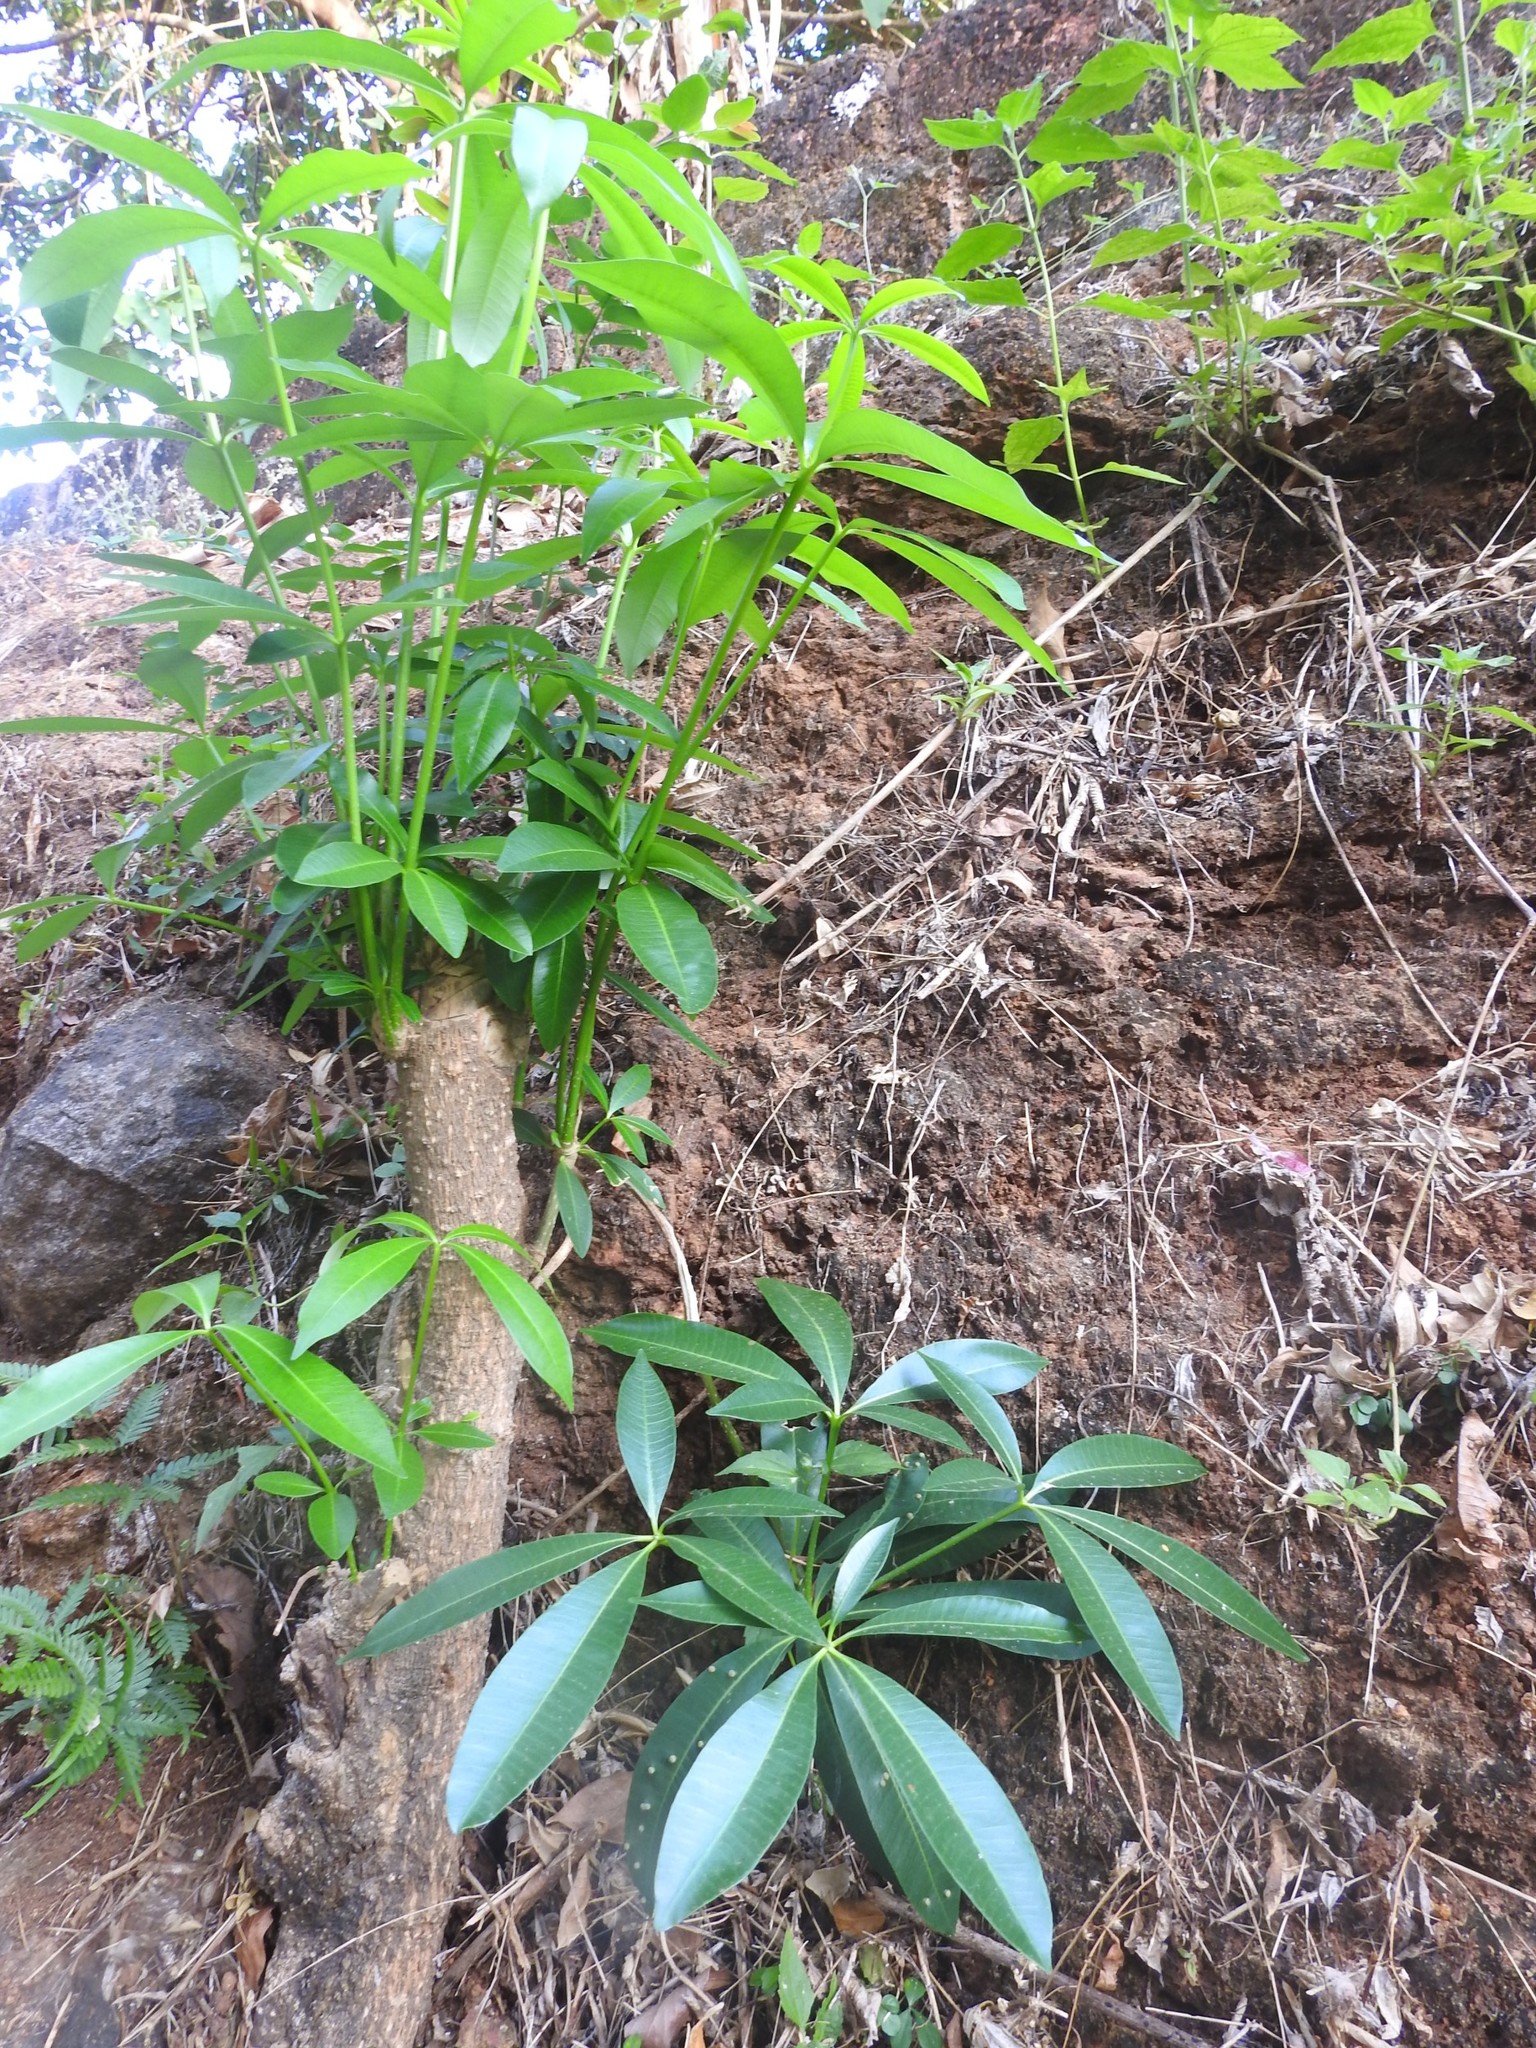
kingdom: Plantae
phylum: Tracheophyta
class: Magnoliopsida
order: Gentianales
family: Apocynaceae
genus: Alstonia
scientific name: Alstonia scholaris
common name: White cheesewood
